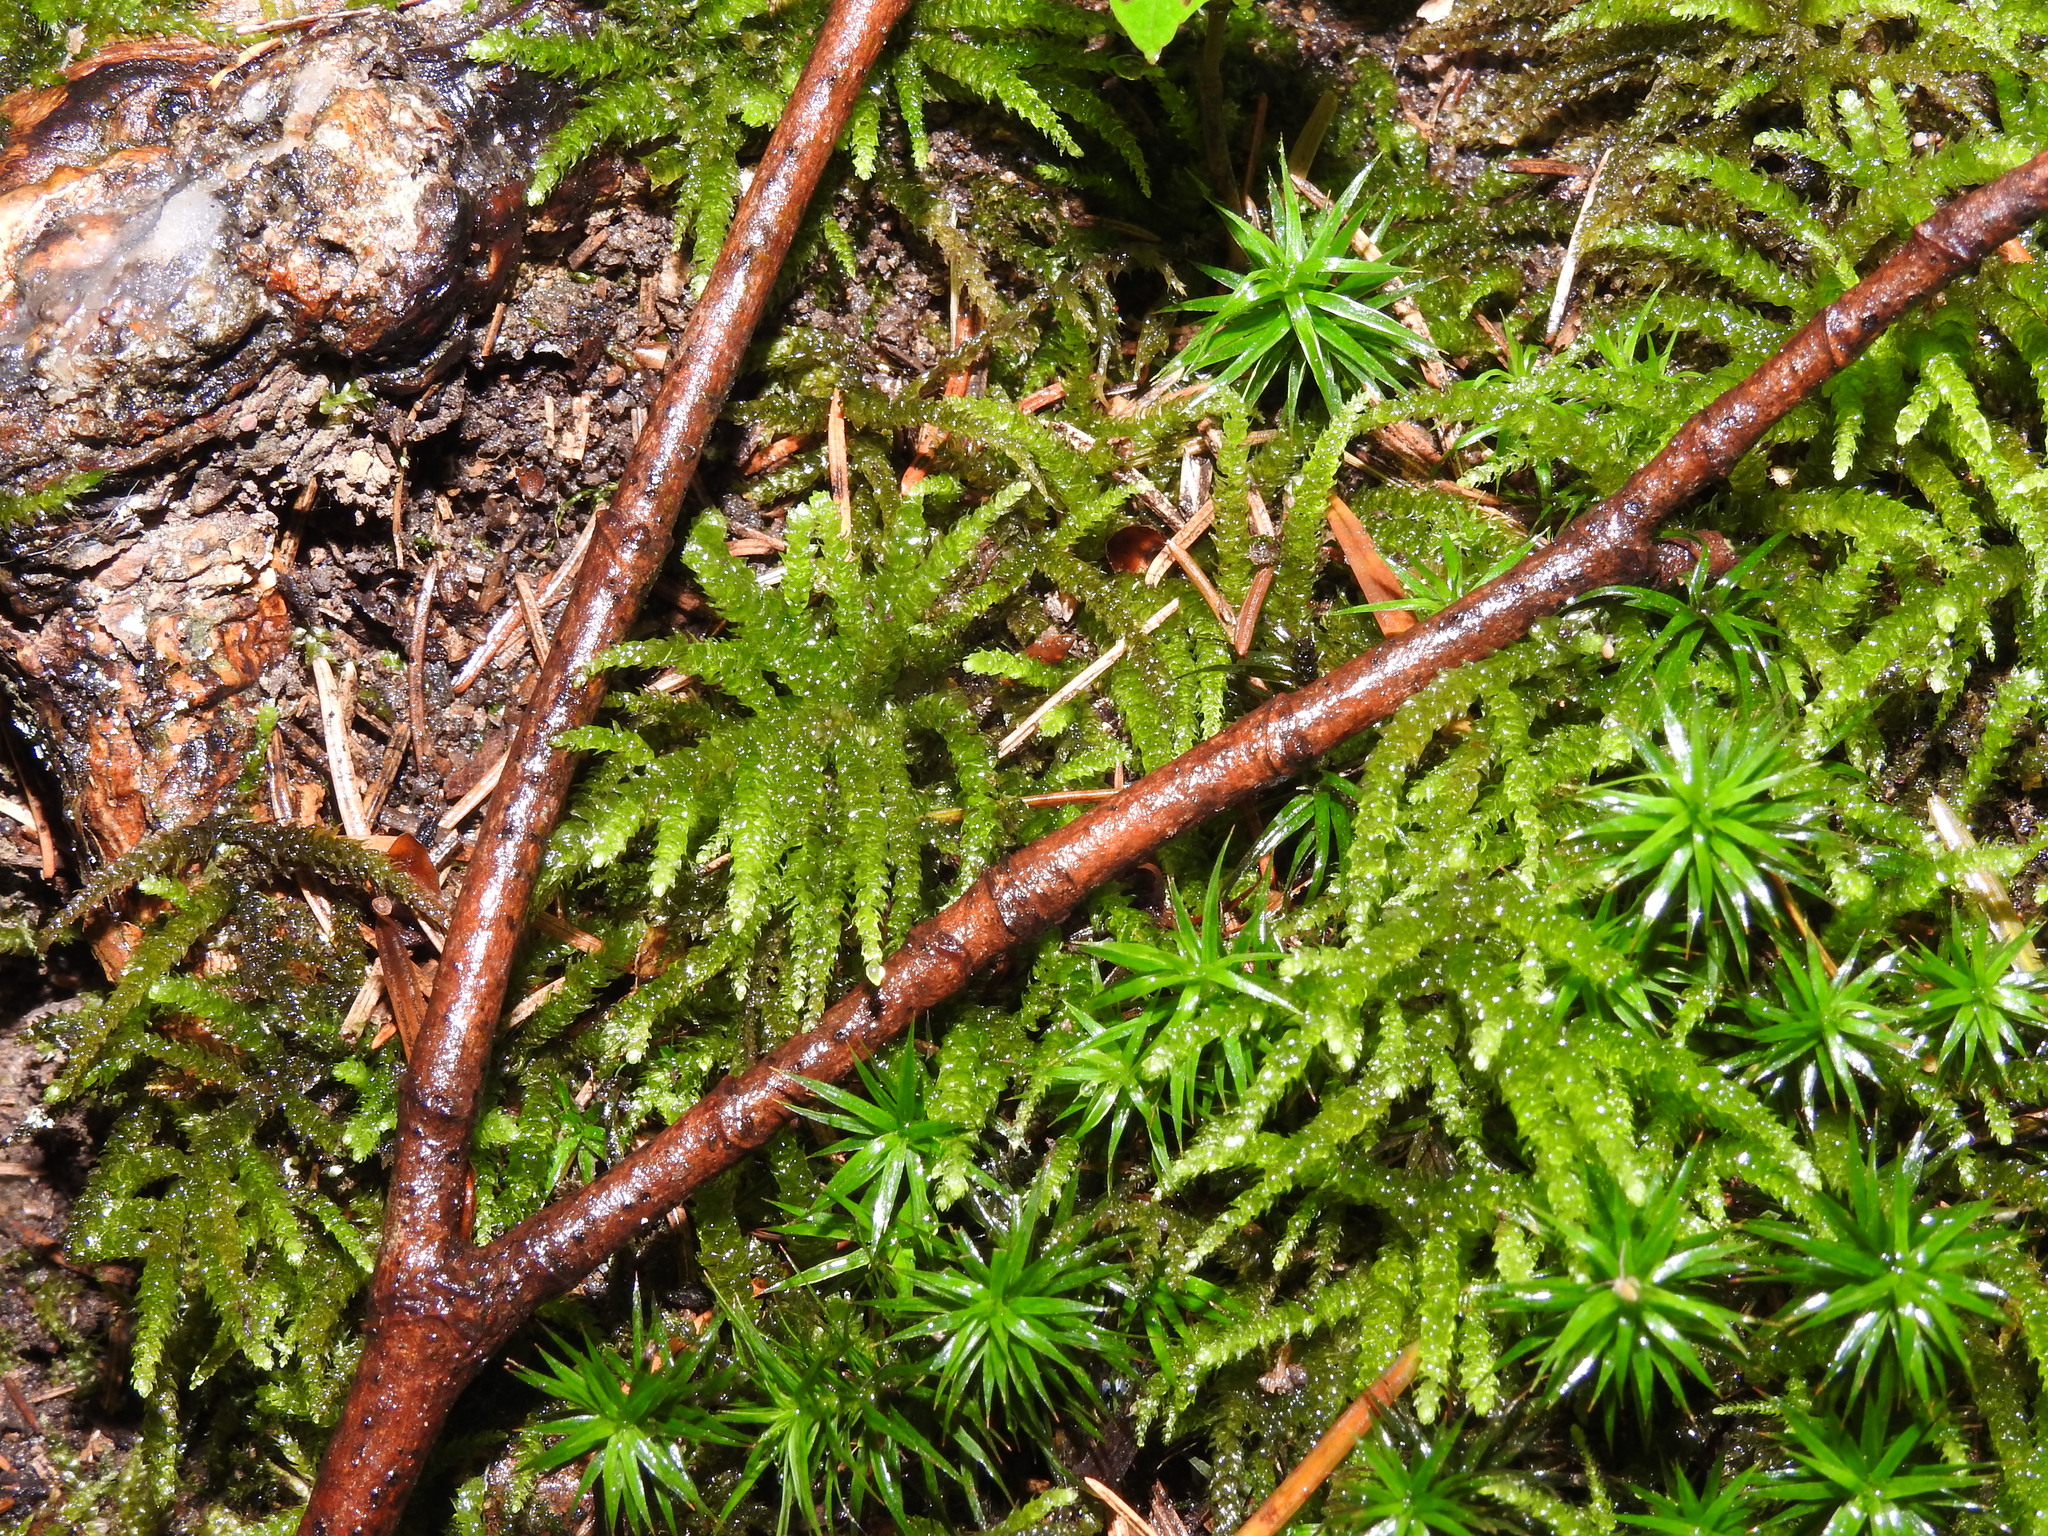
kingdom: Plantae
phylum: Bryophyta
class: Bryopsida
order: Hypnales
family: Brachytheciaceae
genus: Eurhynchium
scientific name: Eurhynchium angustirete
